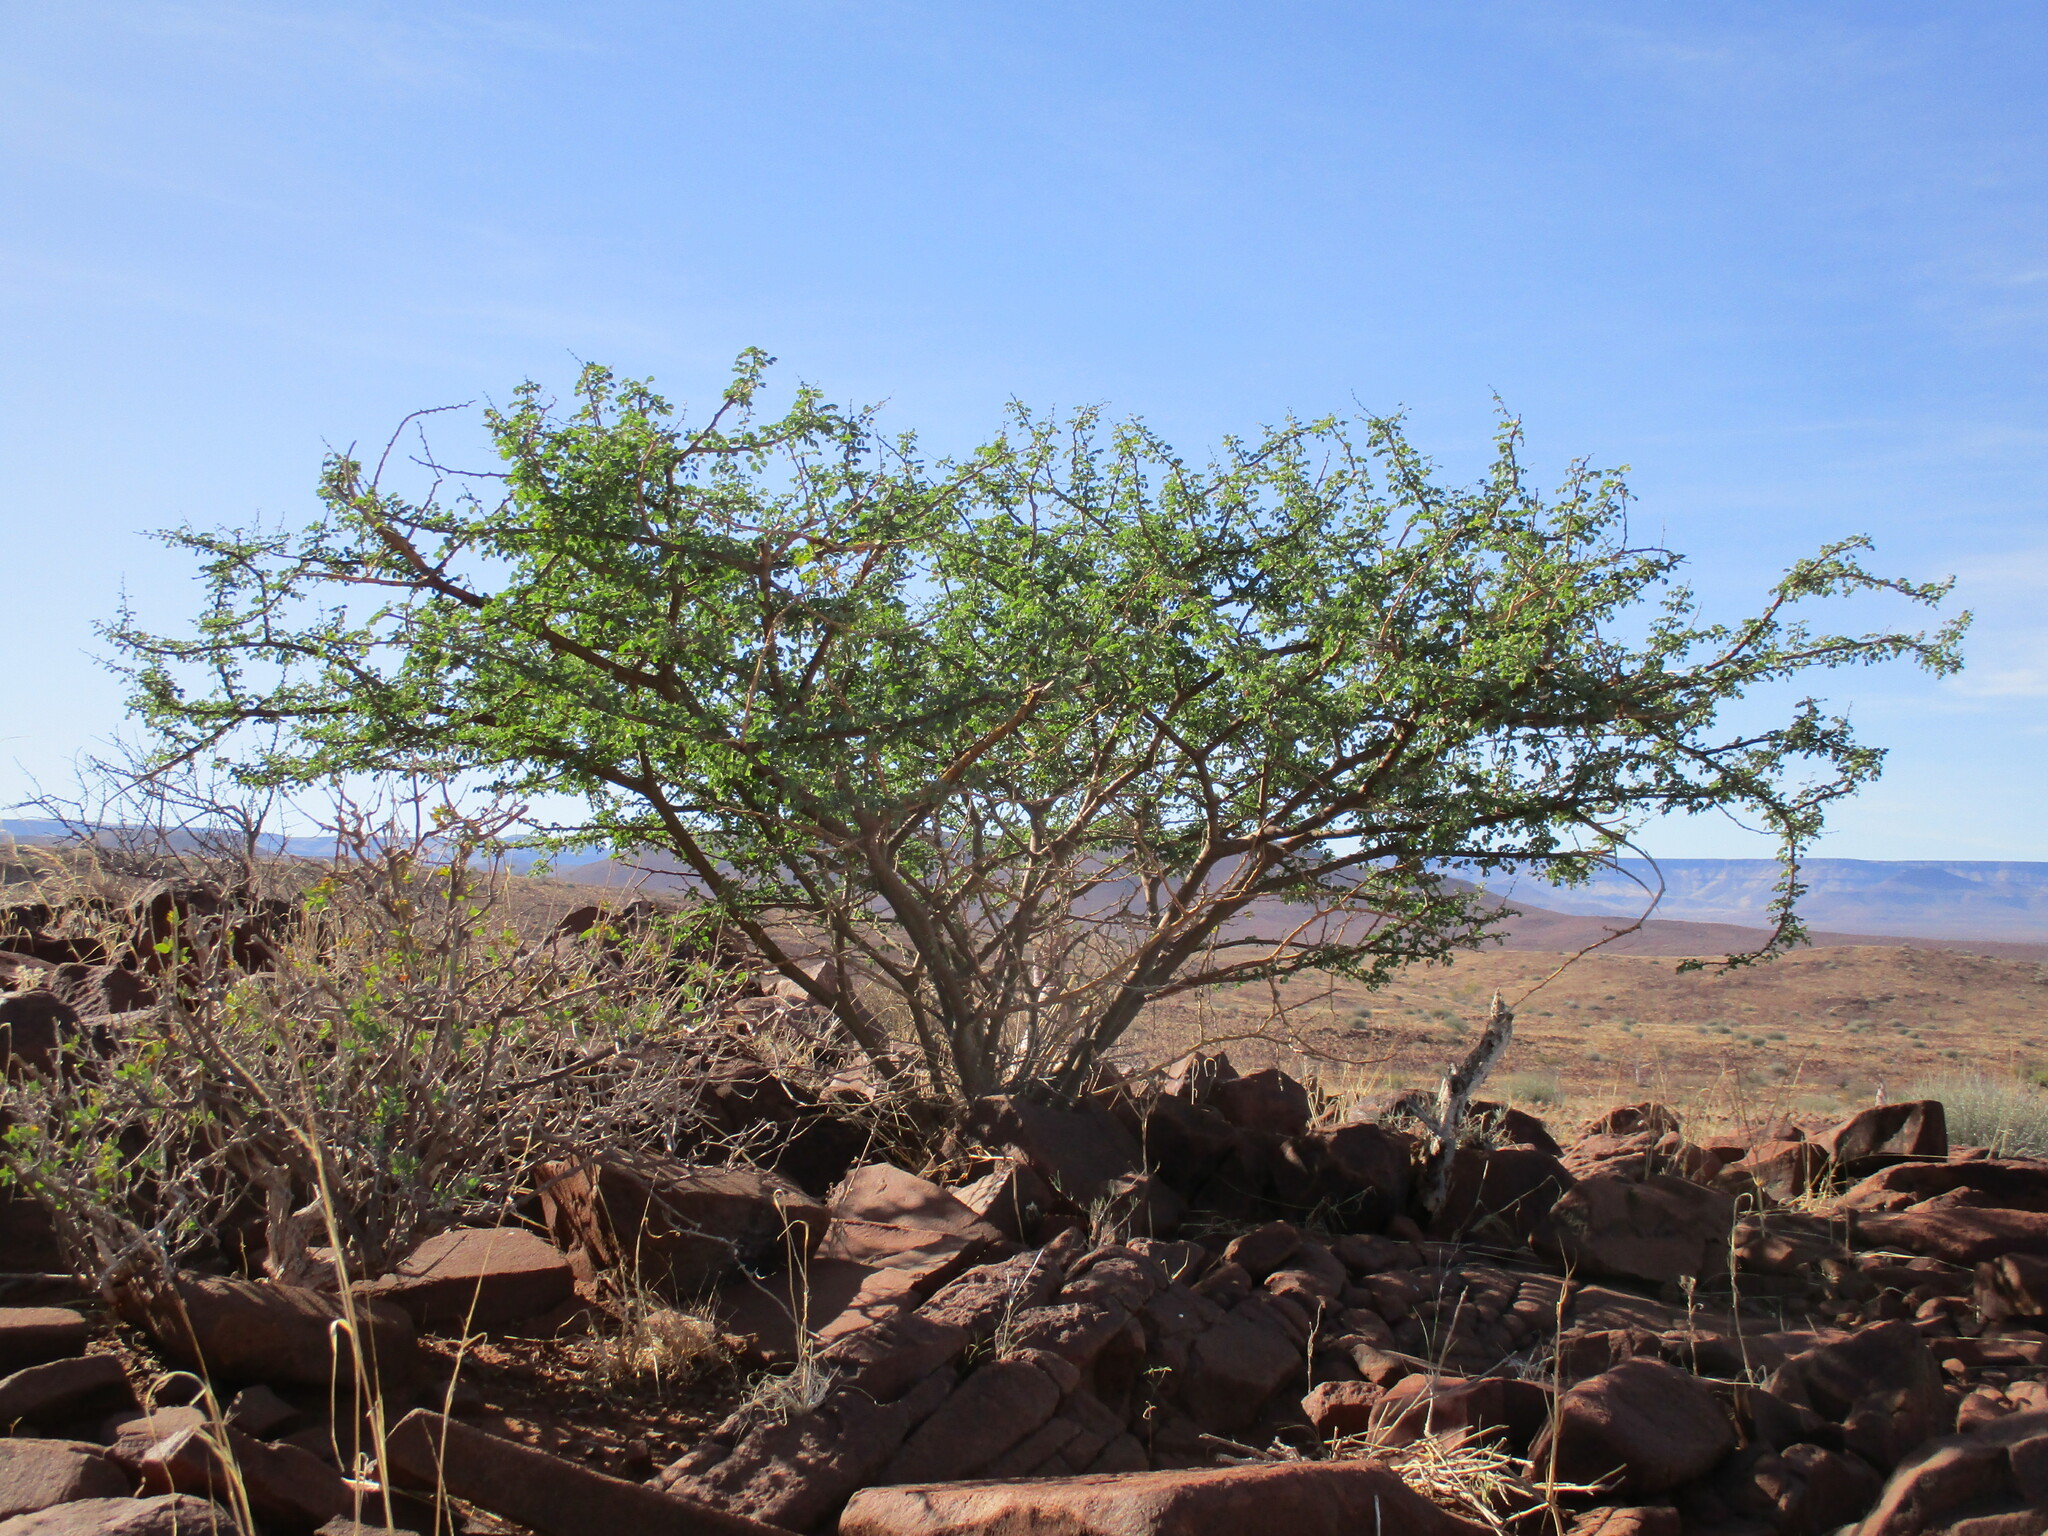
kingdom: Plantae
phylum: Tracheophyta
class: Magnoliopsida
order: Fabales
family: Fabaceae
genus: Senegalia
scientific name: Senegalia mellifera
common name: Hookthorn
